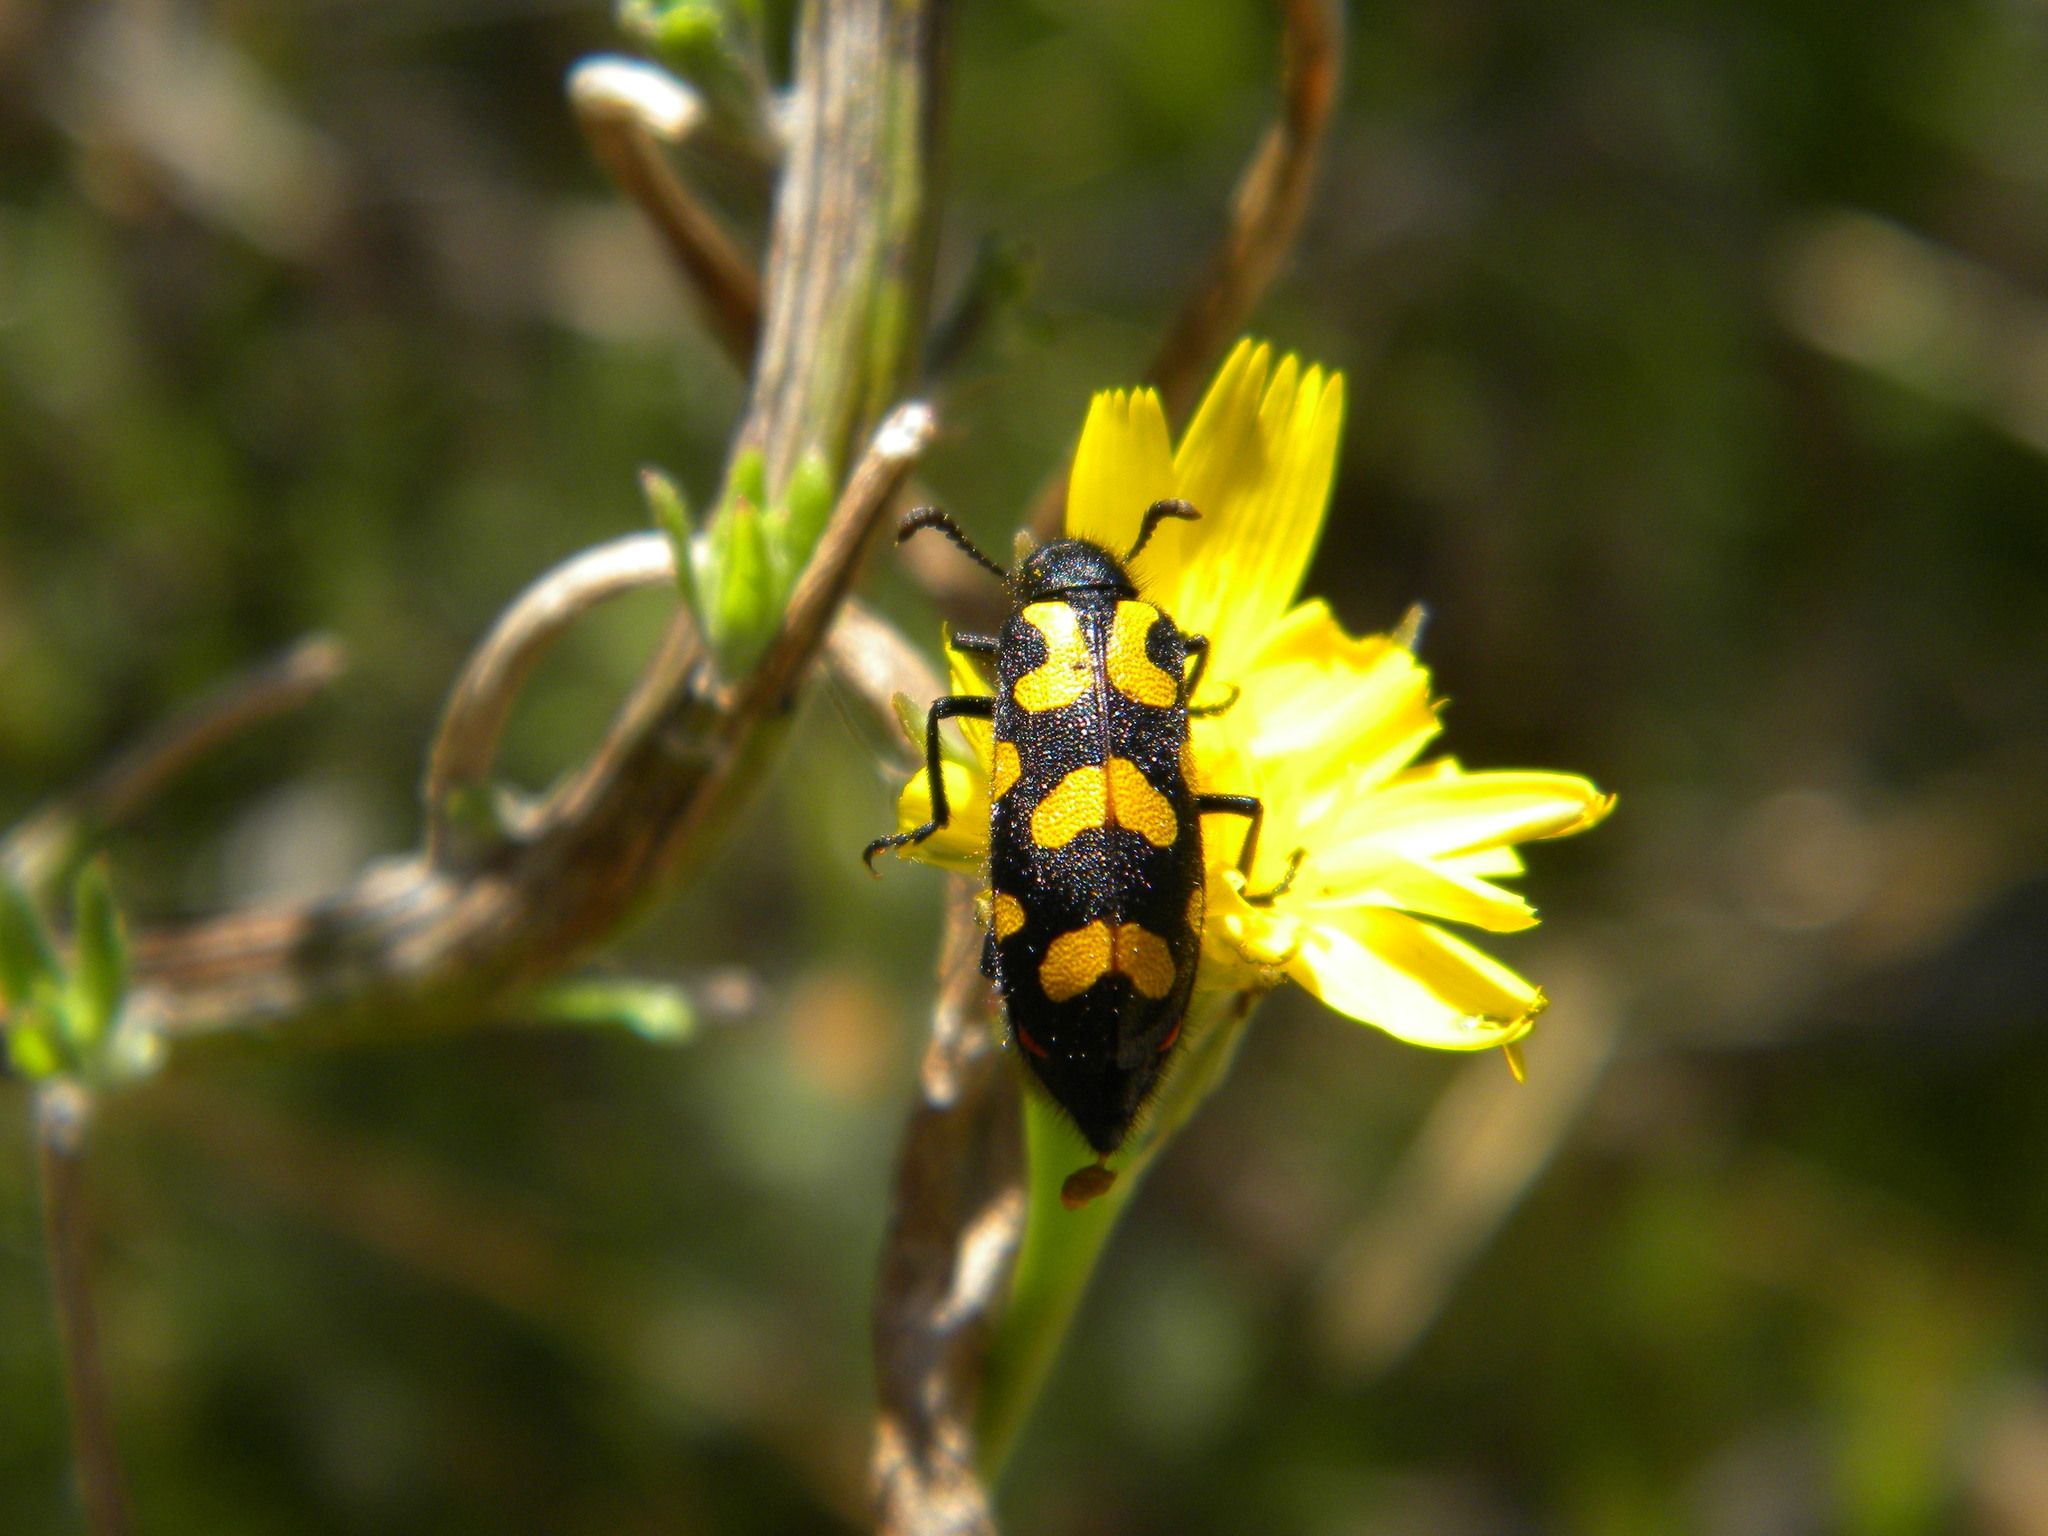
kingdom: Animalia
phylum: Arthropoda
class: Insecta
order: Coleoptera
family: Meloidae
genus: Ceroctis
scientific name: Ceroctis capensis
